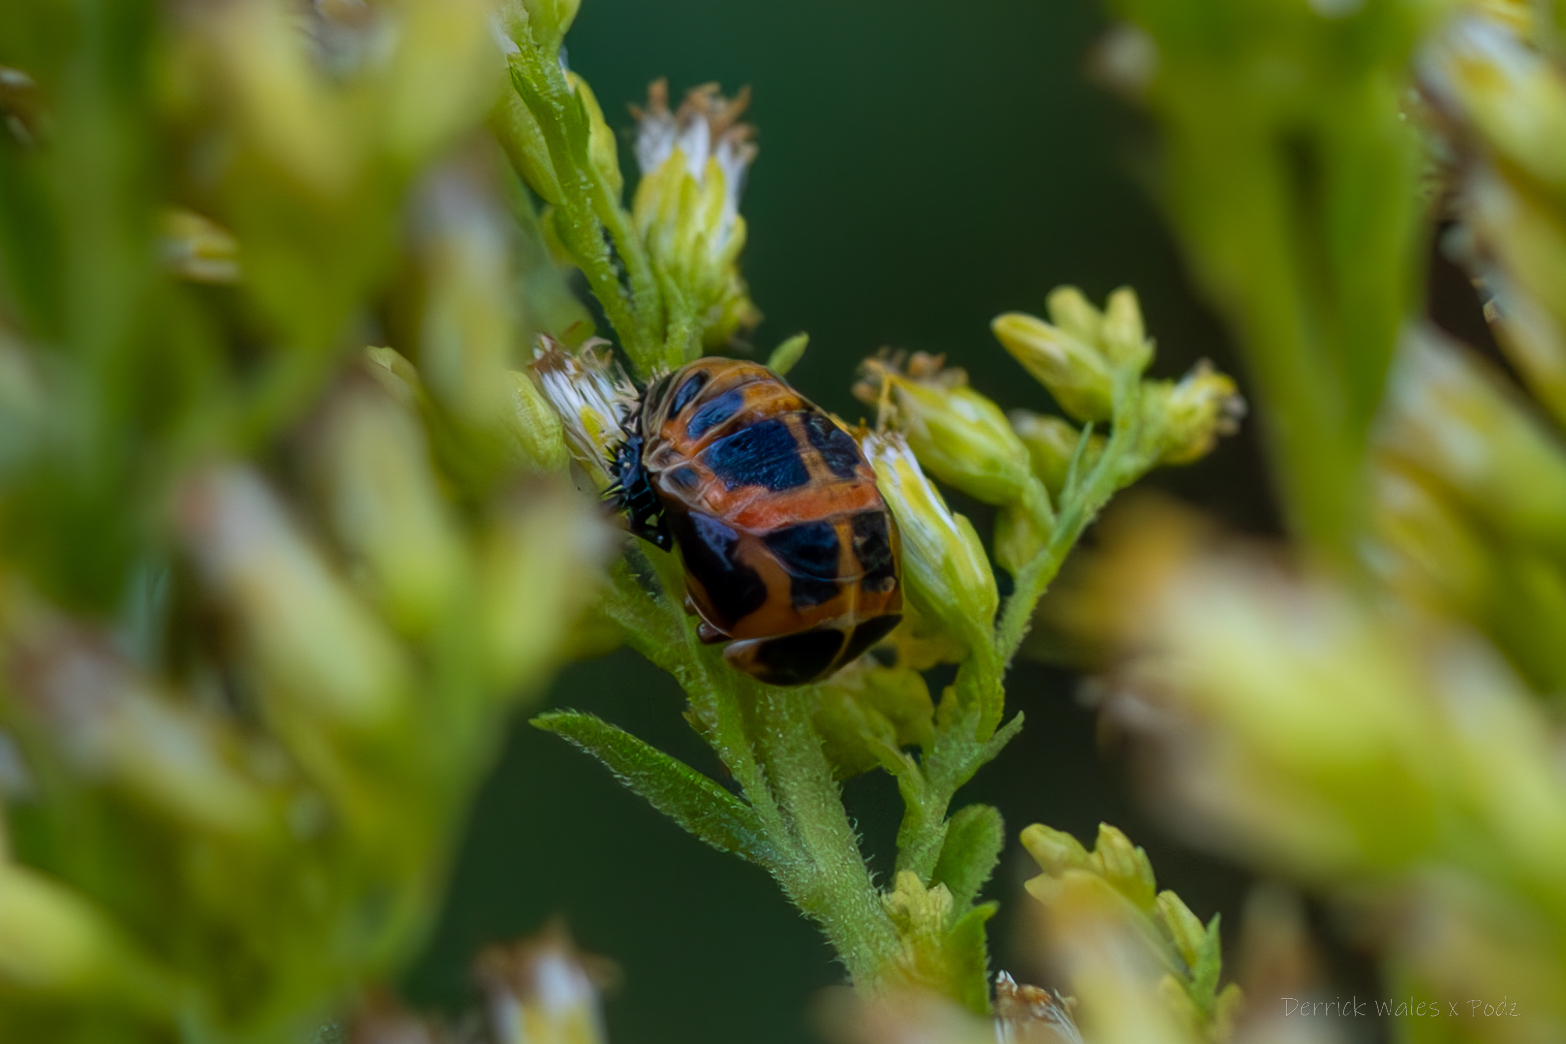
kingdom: Animalia
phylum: Arthropoda
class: Insecta
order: Coleoptera
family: Coccinellidae
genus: Harmonia
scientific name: Harmonia axyridis
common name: Harlequin ladybird
